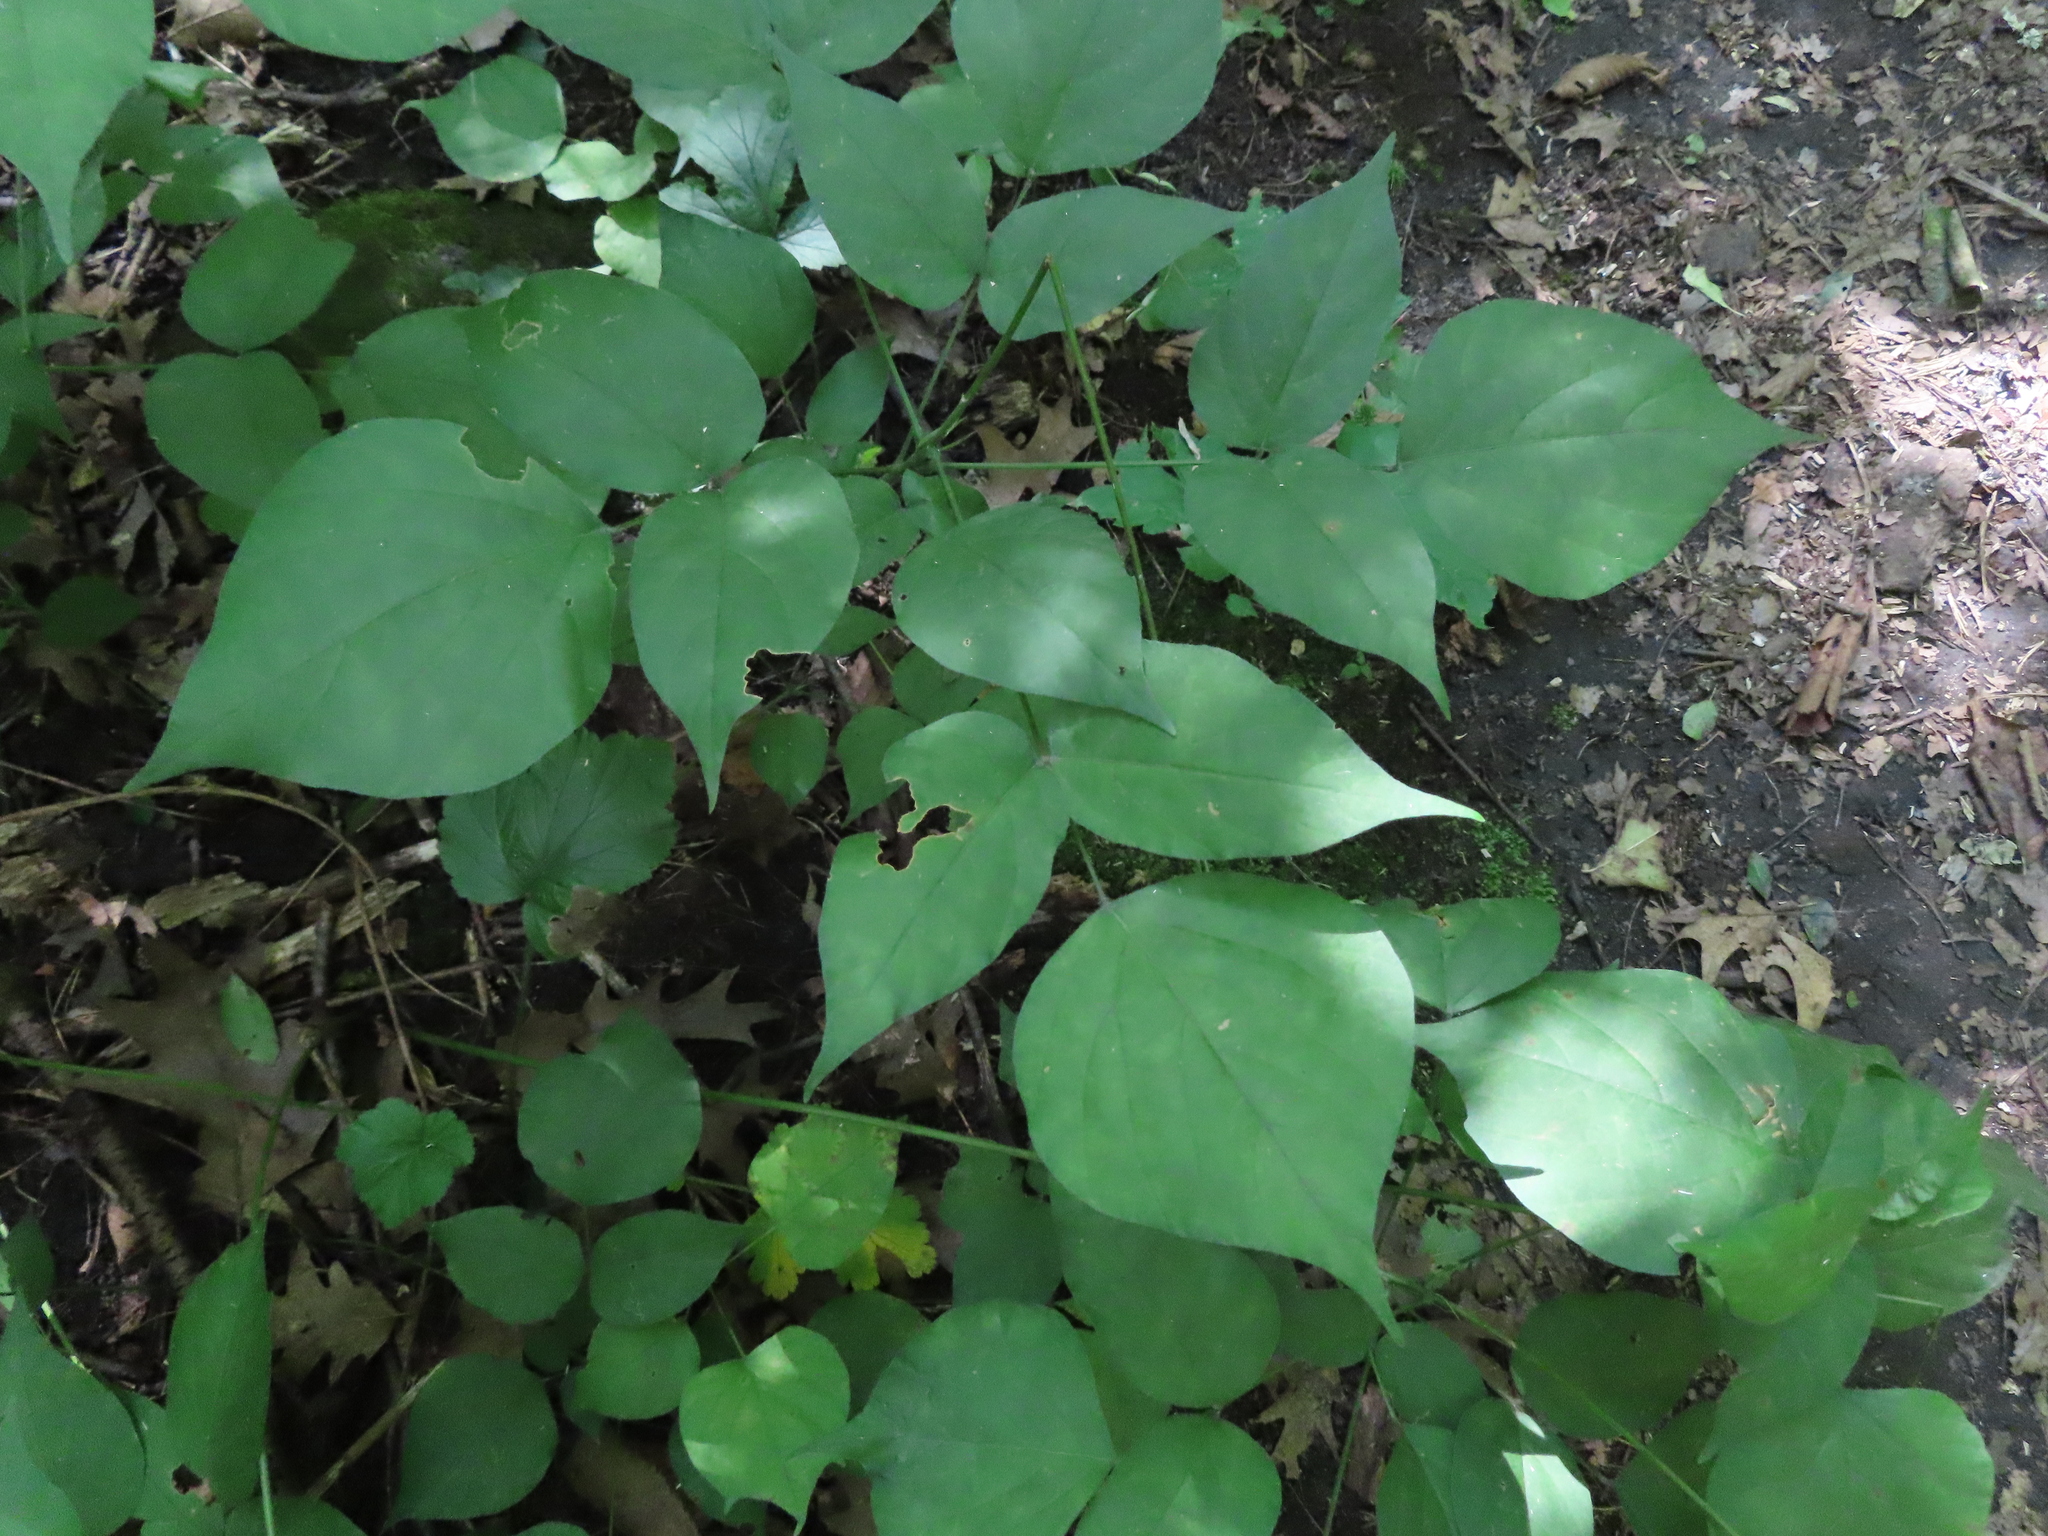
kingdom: Plantae
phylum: Tracheophyta
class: Magnoliopsida
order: Fabales
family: Fabaceae
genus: Hylodesmum
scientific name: Hylodesmum glutinosum
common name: Clustered-leaved tick-trefoil
